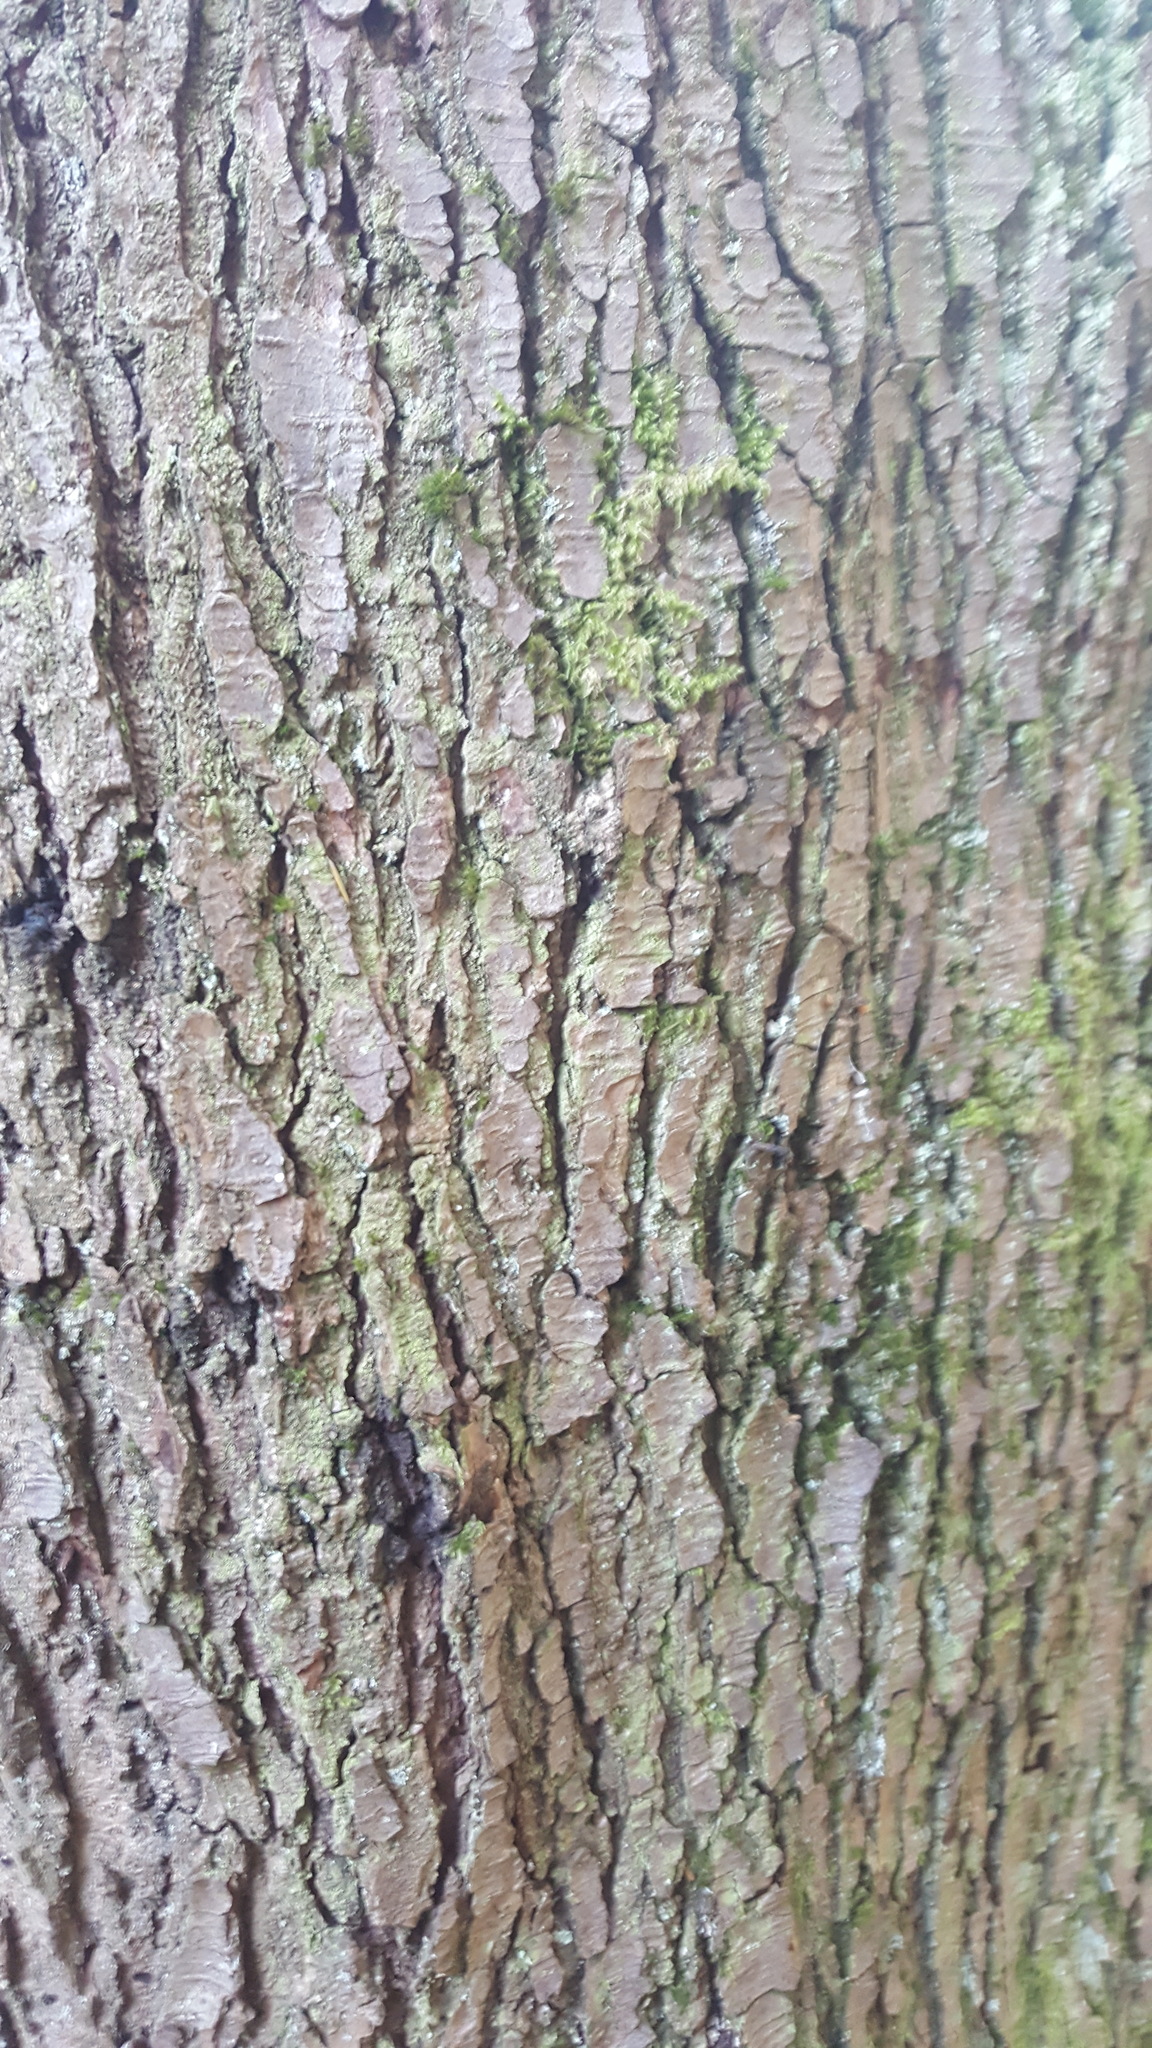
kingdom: Plantae
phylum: Tracheophyta
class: Pinopsida
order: Pinales
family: Pinaceae
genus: Tsuga
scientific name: Tsuga heterophylla
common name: Western hemlock
